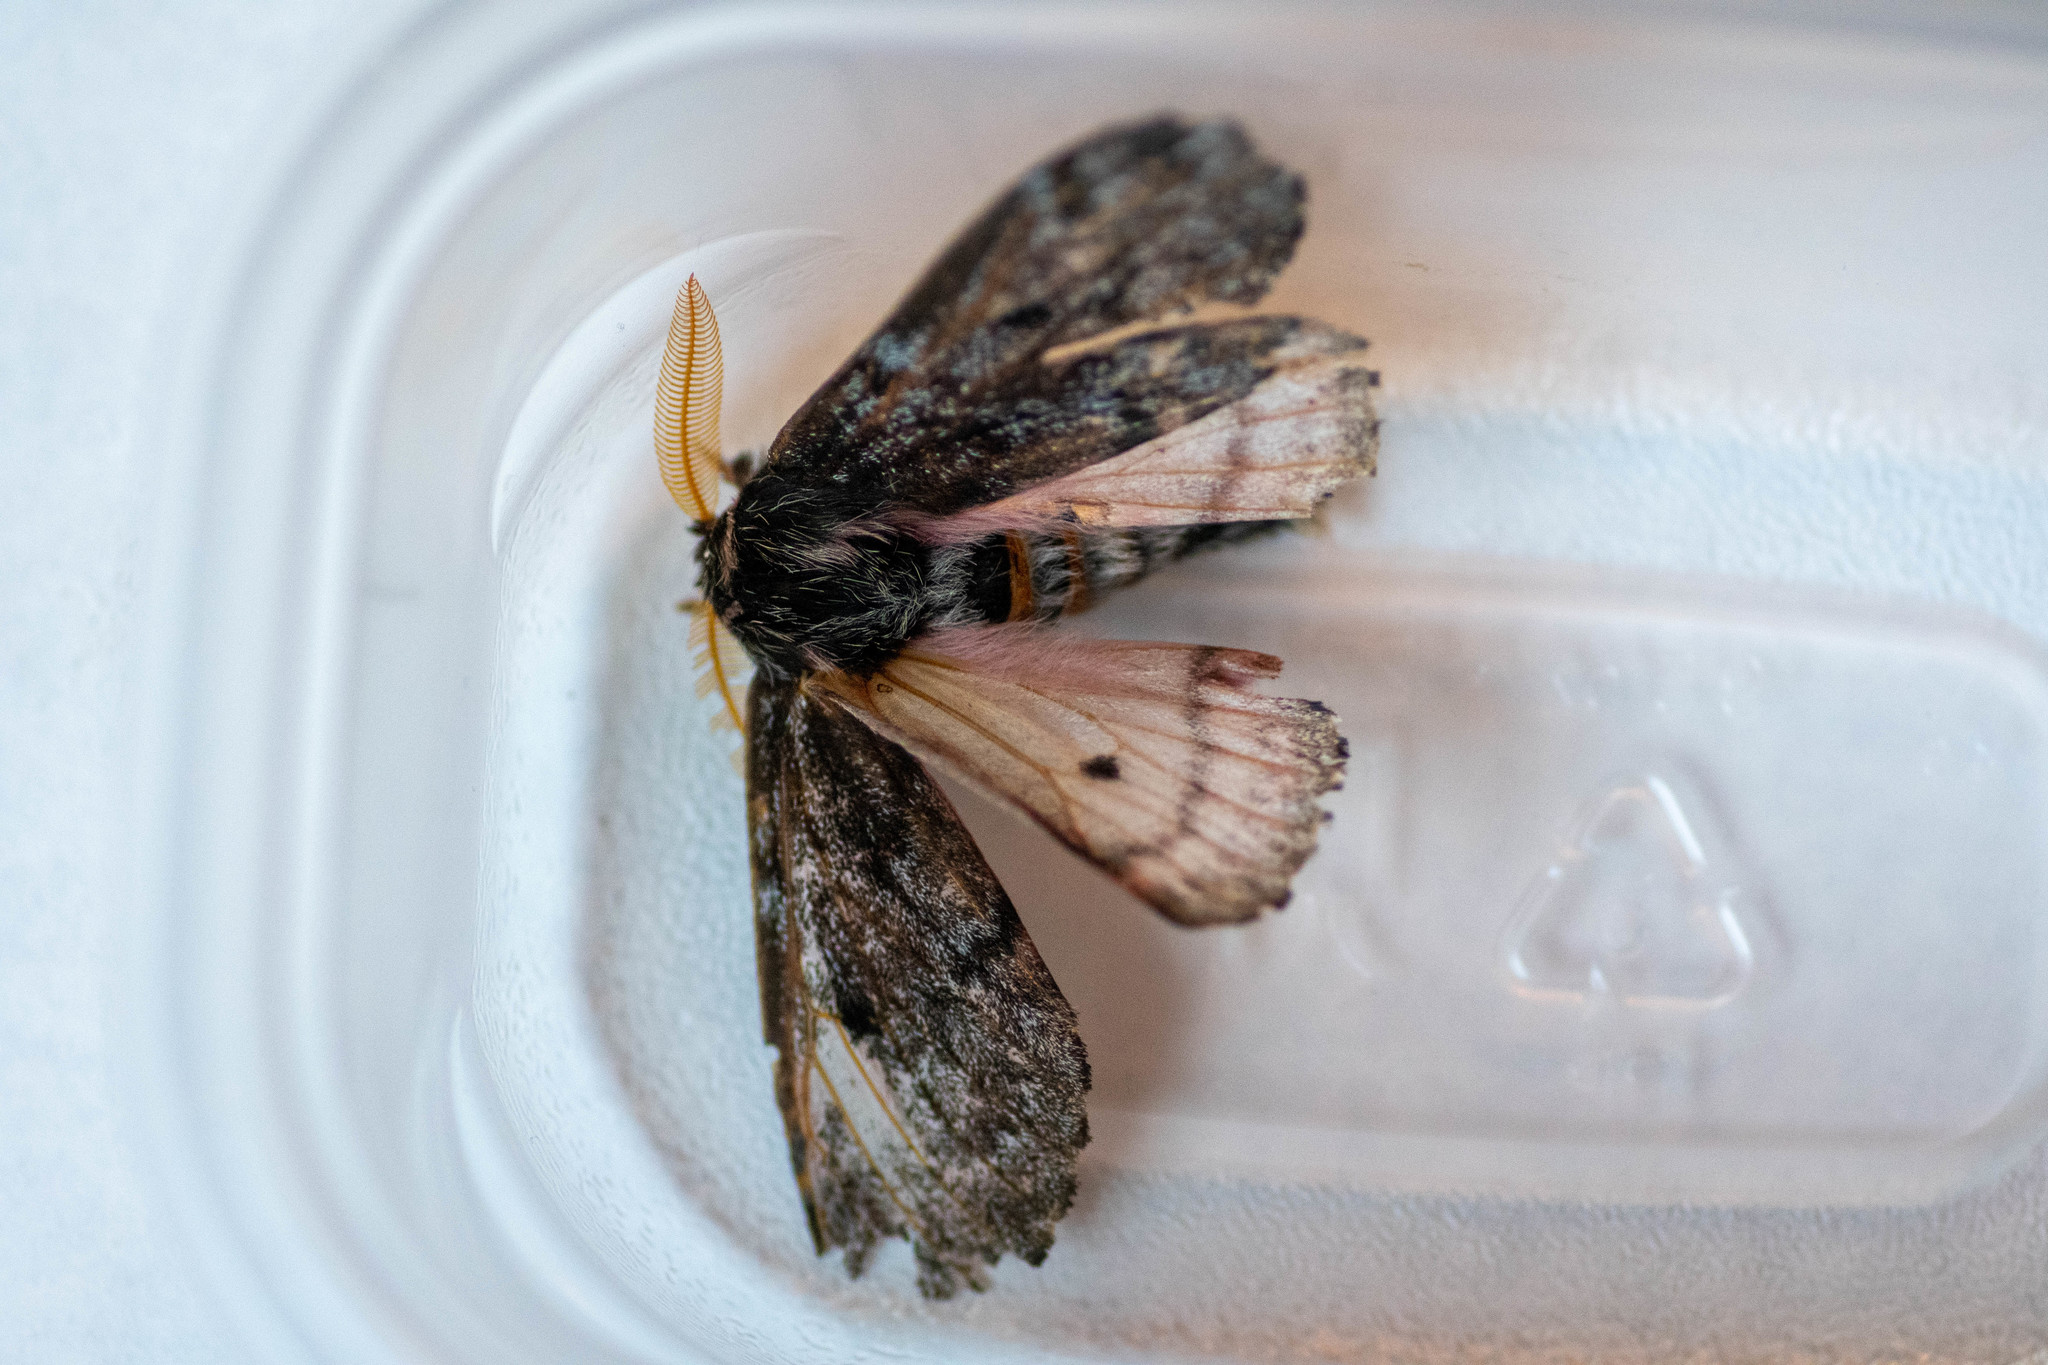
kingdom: Animalia
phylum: Arthropoda
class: Insecta
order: Lepidoptera
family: Saturniidae
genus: Coloradia
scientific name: Coloradia pandora
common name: Pandora pinemoth
